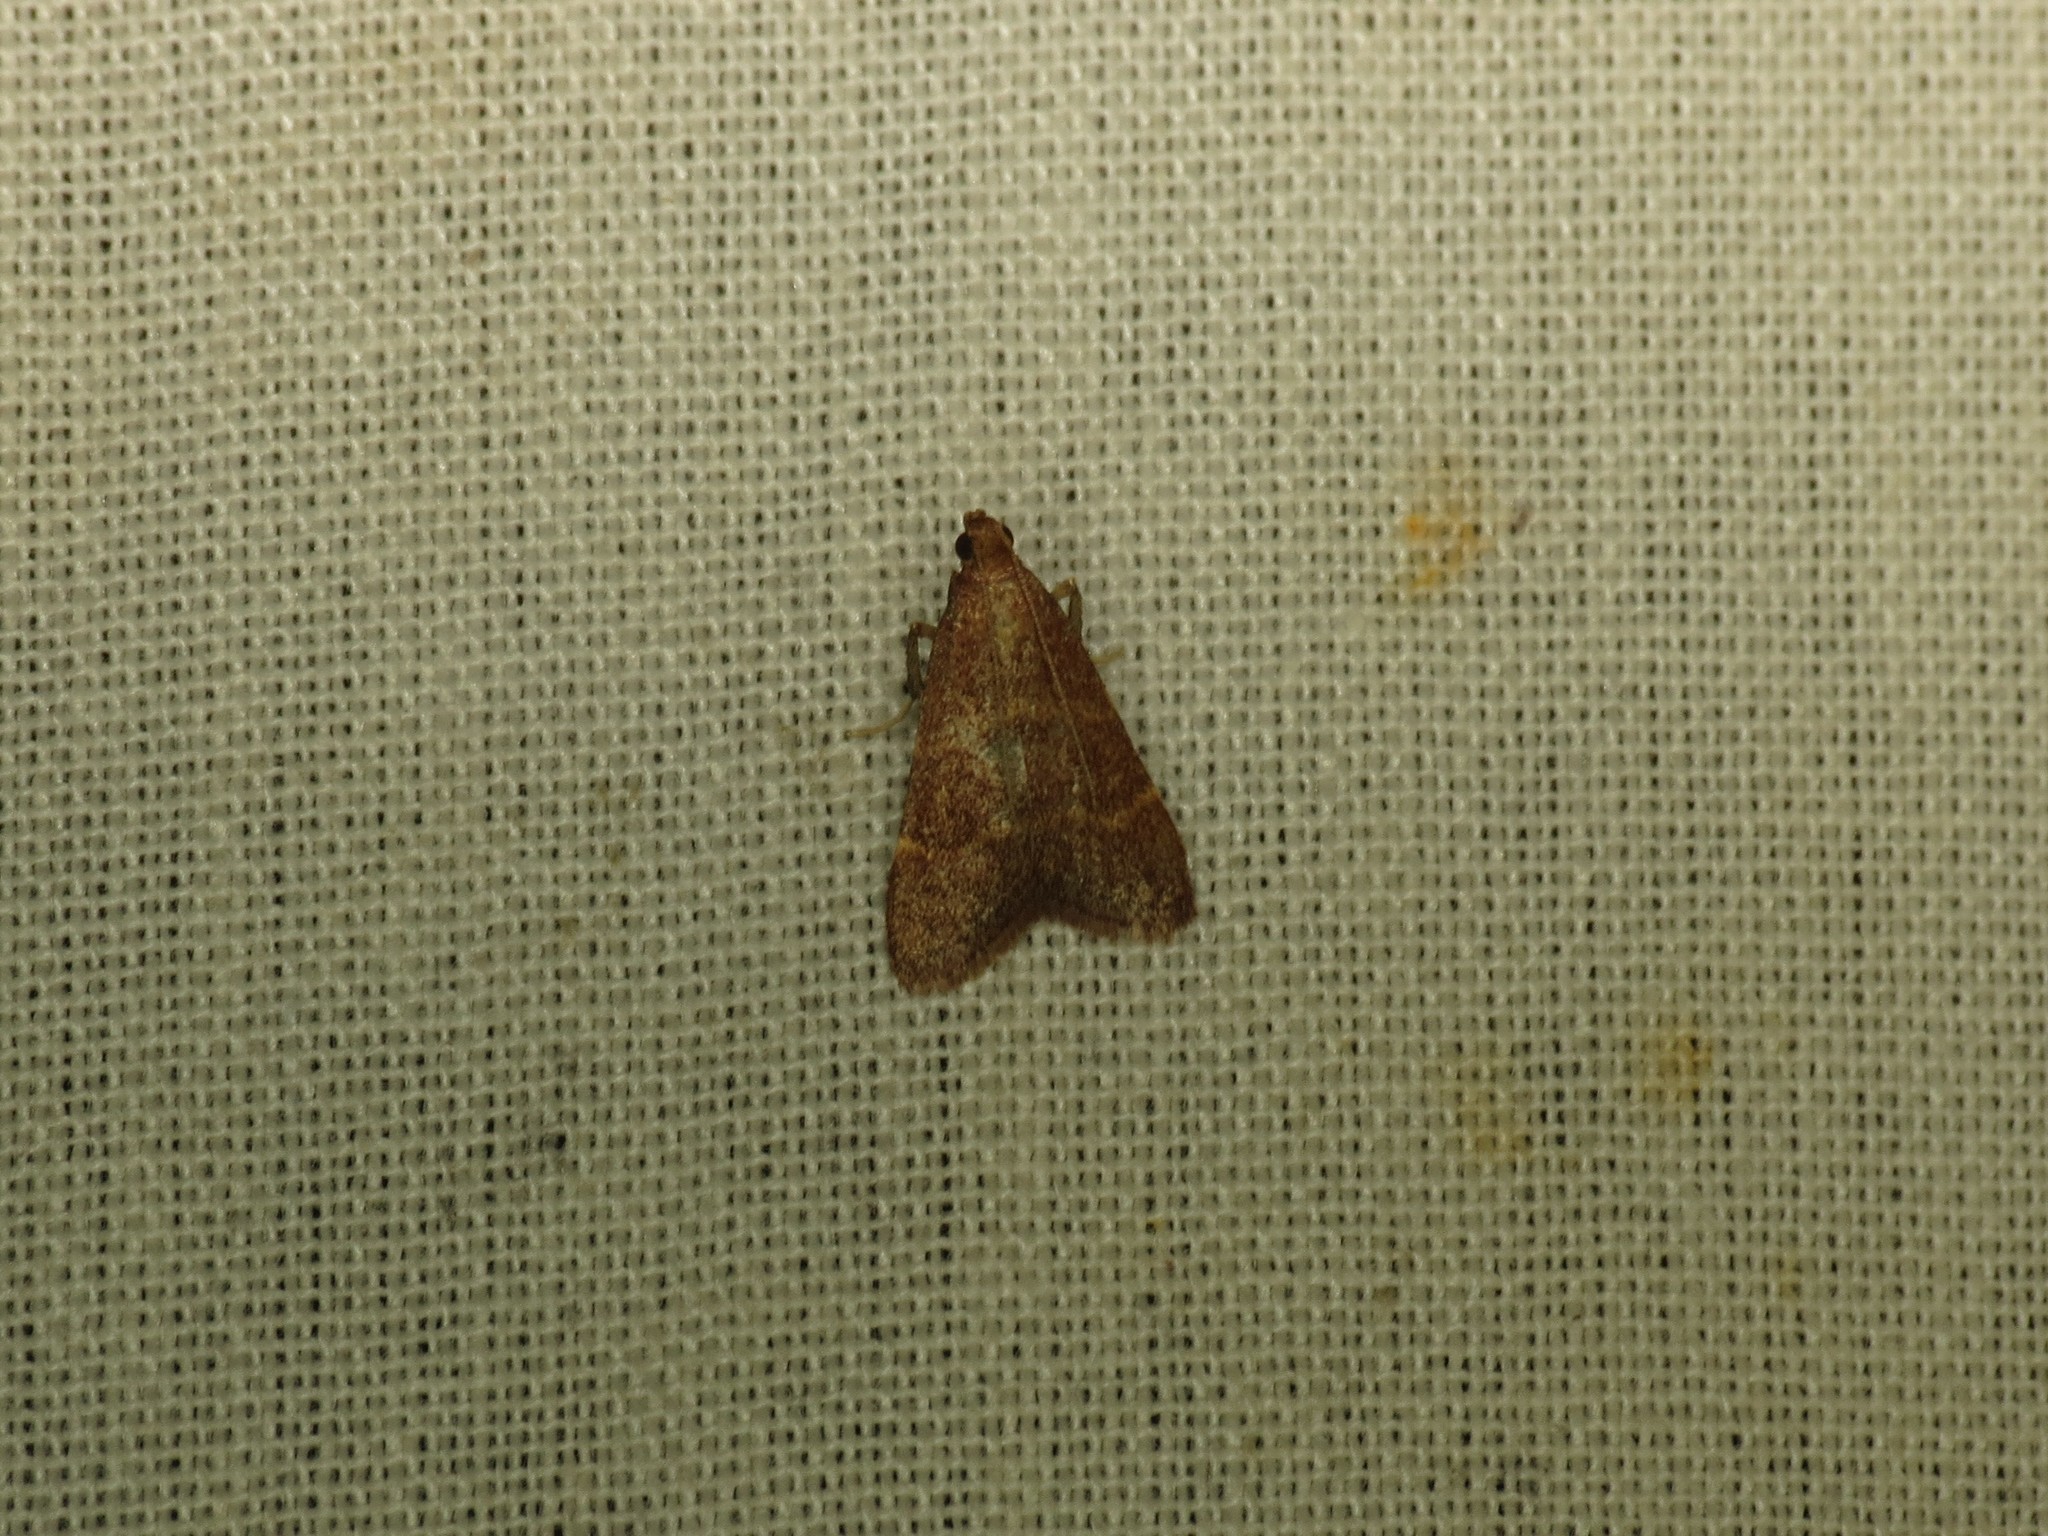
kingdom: Animalia
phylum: Arthropoda
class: Insecta
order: Lepidoptera
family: Pyralidae
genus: Arta
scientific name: Arta epicoenalis
